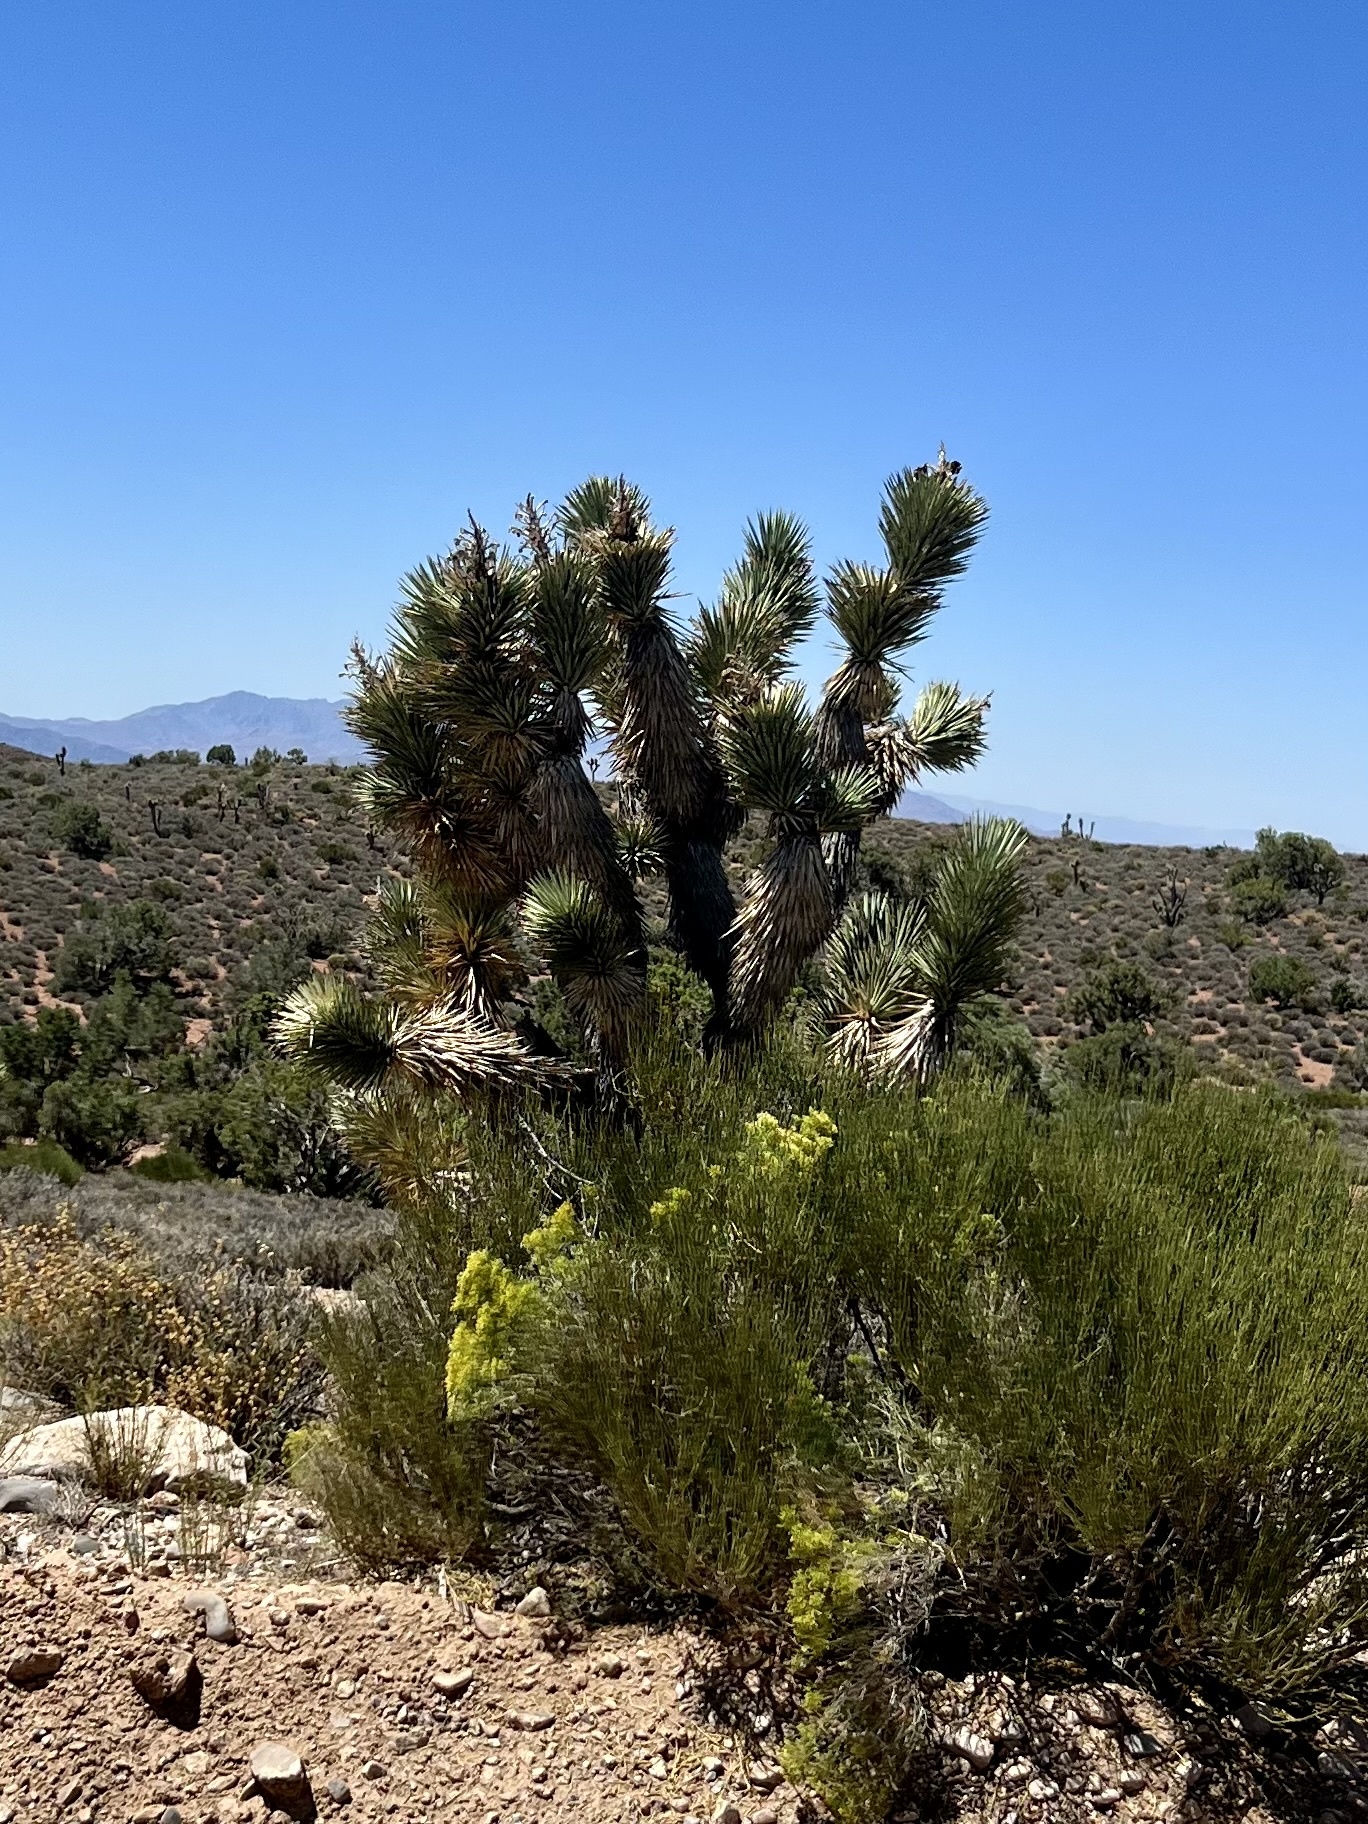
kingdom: Plantae
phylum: Tracheophyta
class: Liliopsida
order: Asparagales
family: Asparagaceae
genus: Yucca
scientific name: Yucca brevifolia
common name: Joshua tree
